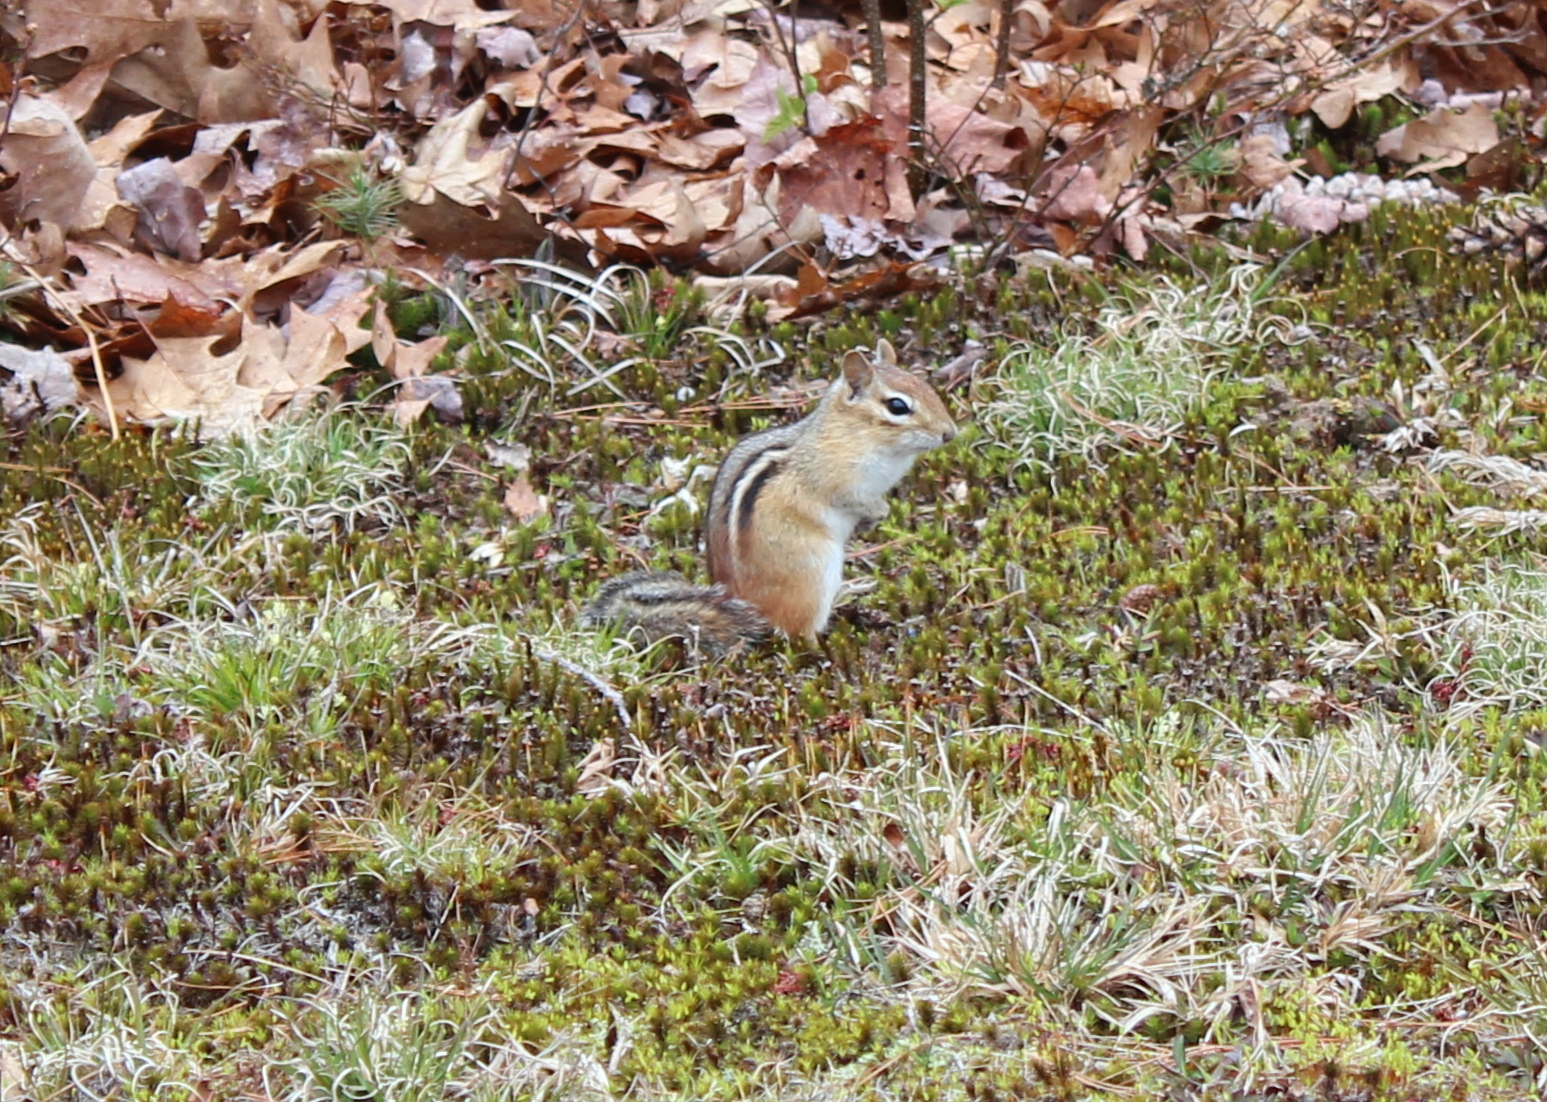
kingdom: Animalia
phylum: Chordata
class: Mammalia
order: Rodentia
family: Sciuridae
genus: Tamias
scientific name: Tamias striatus
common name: Eastern chipmunk
